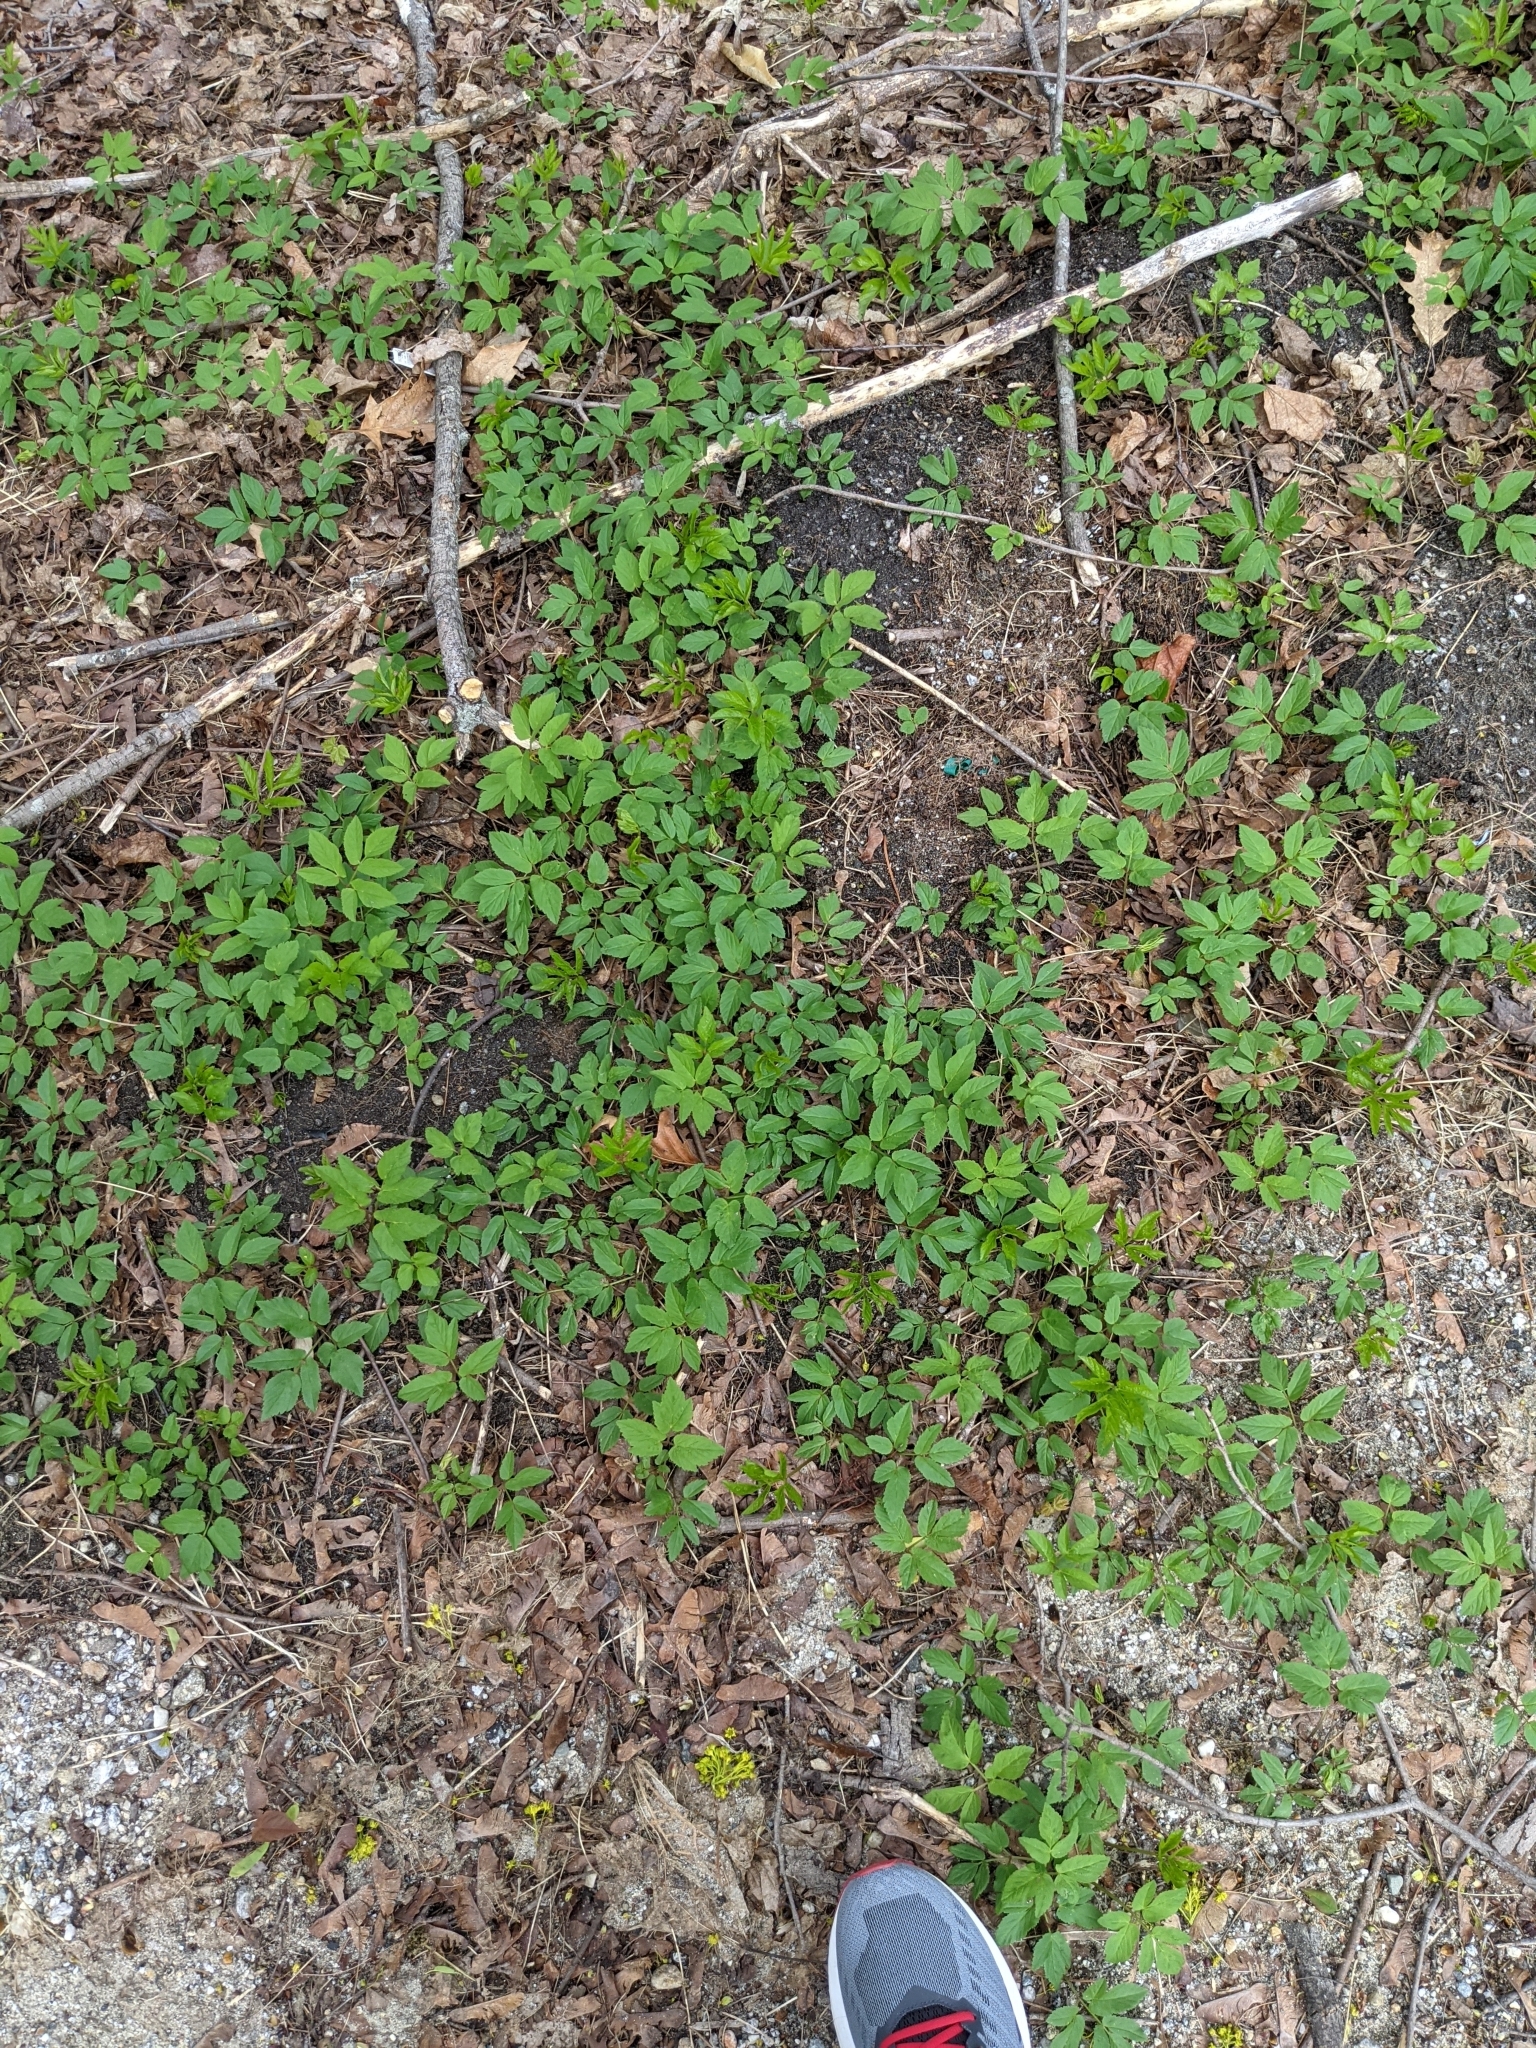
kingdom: Plantae
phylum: Tracheophyta
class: Magnoliopsida
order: Apiales
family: Apiaceae
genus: Aegopodium
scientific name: Aegopodium podagraria
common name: Ground-elder
